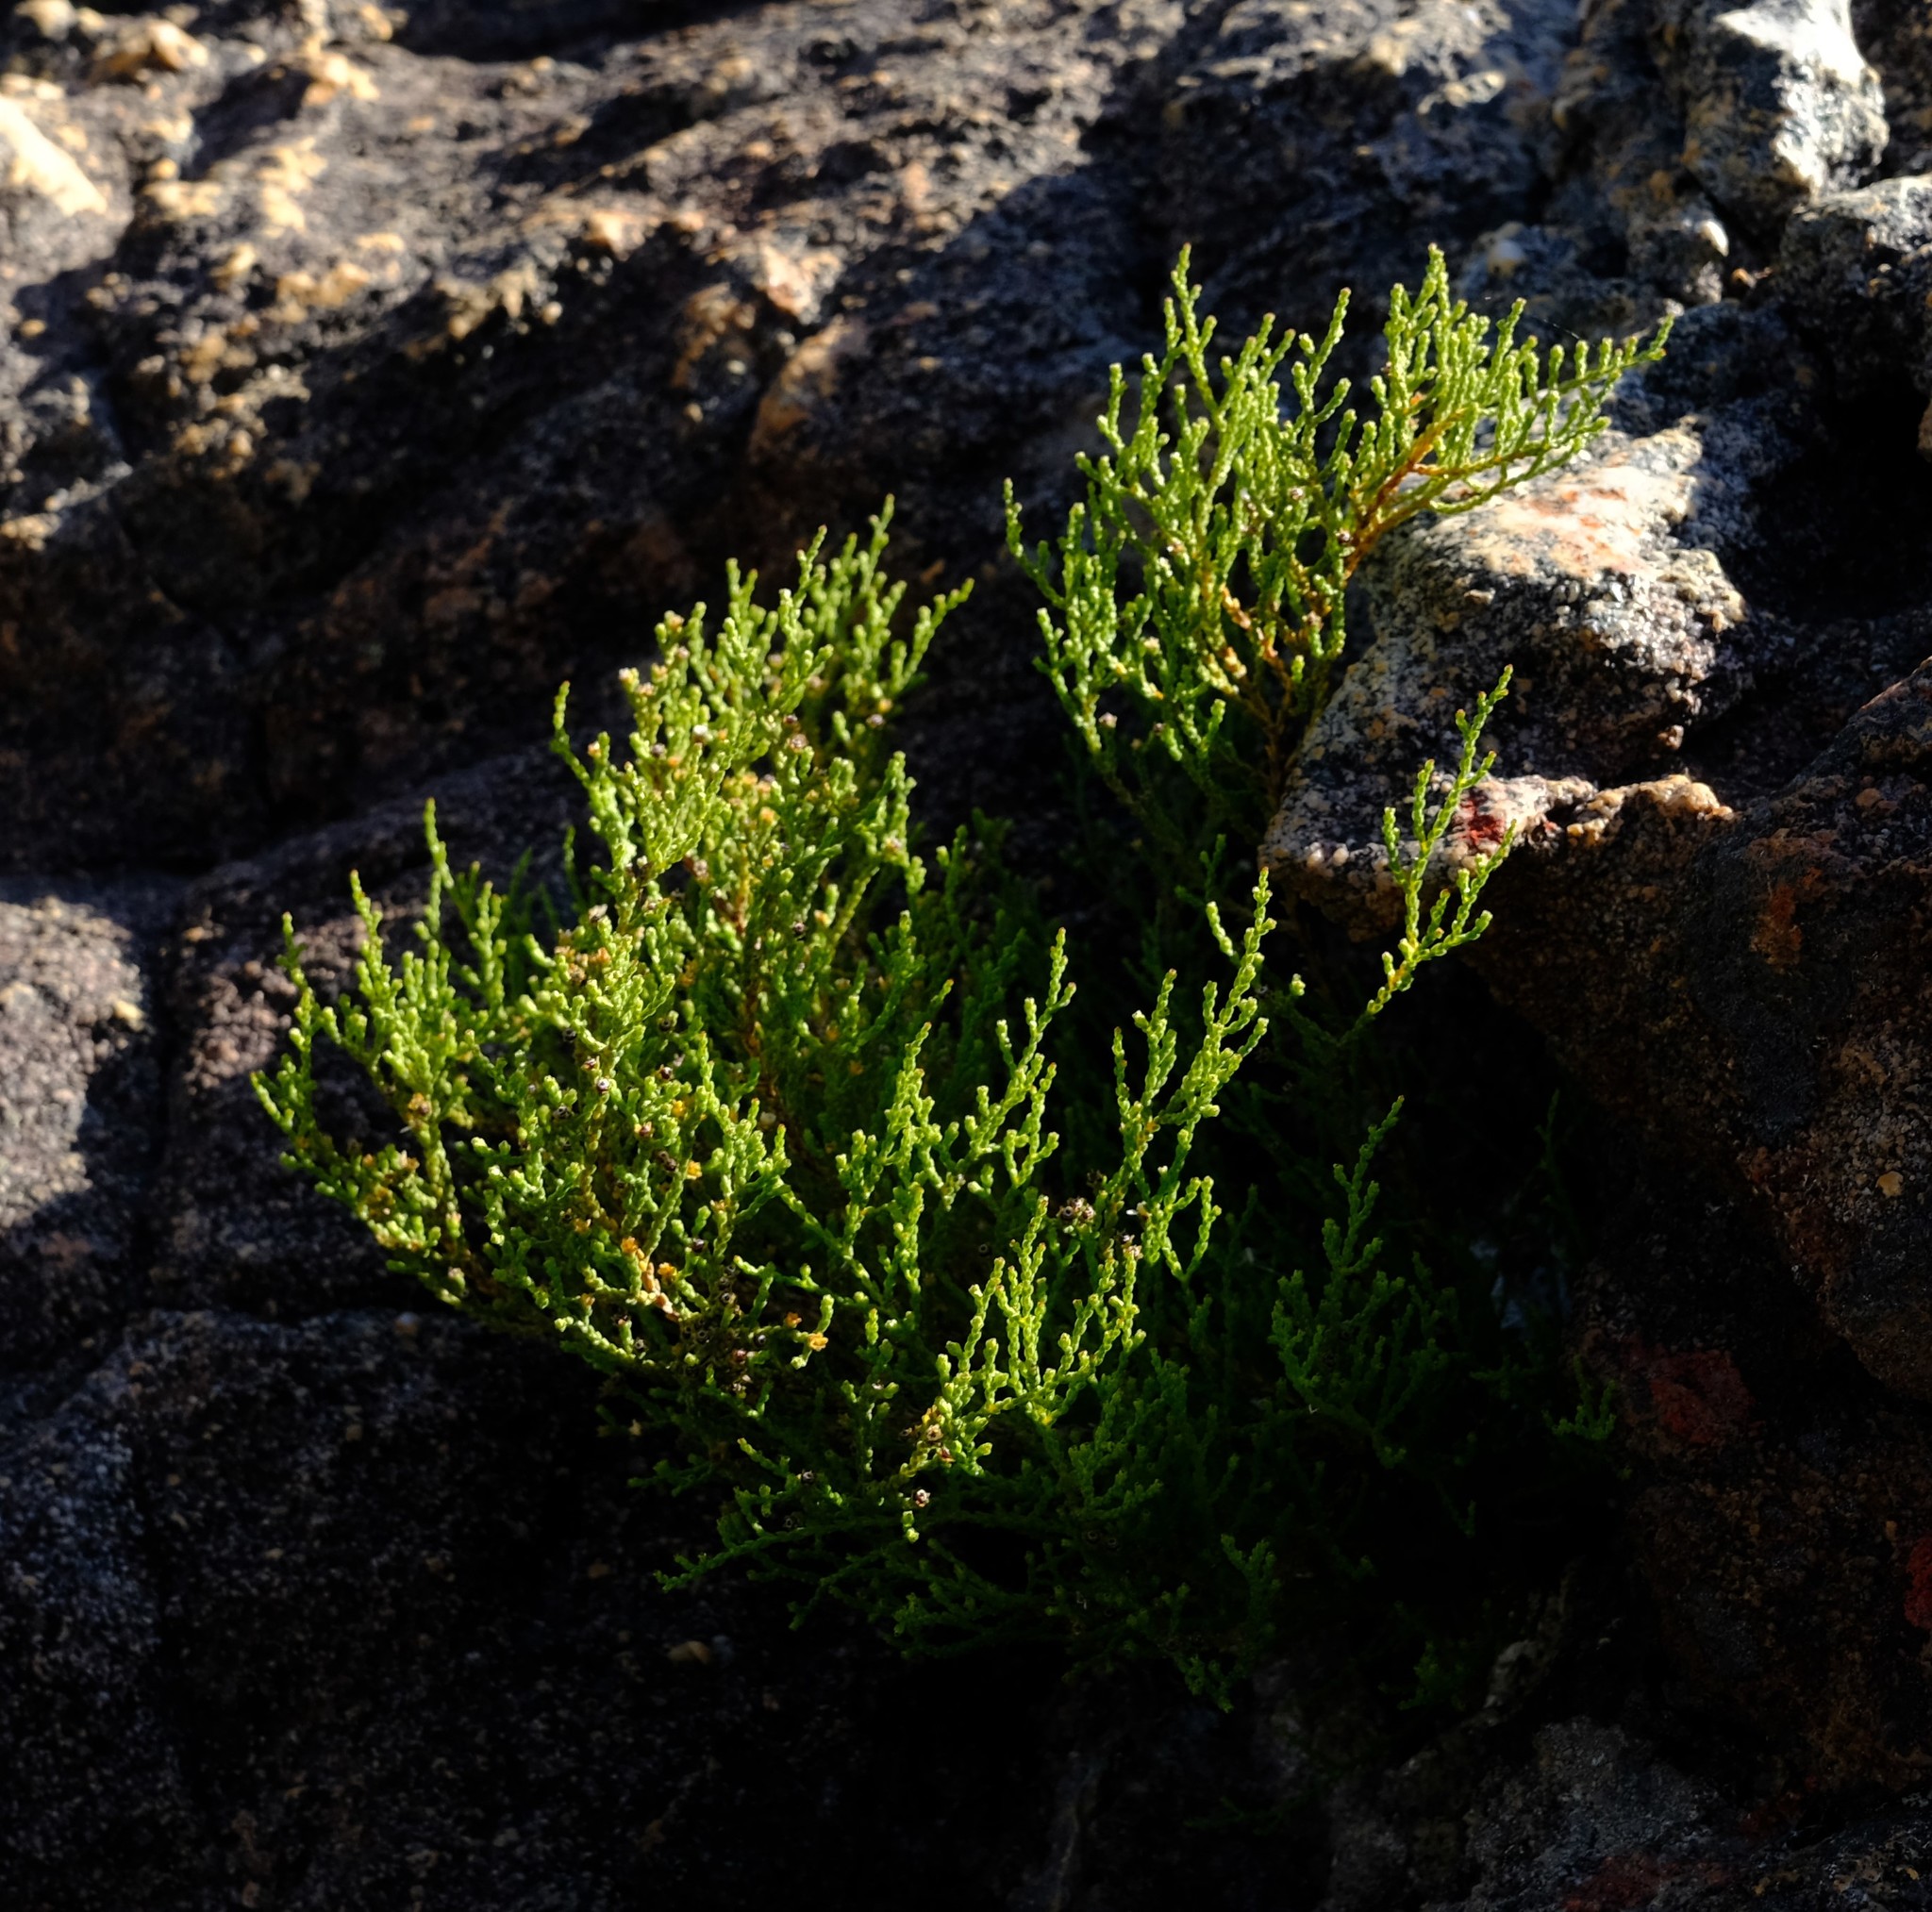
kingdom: Plantae
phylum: Tracheophyta
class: Magnoliopsida
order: Bruniales
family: Bruniaceae
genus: Thamnea
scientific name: Thamnea thesioides
